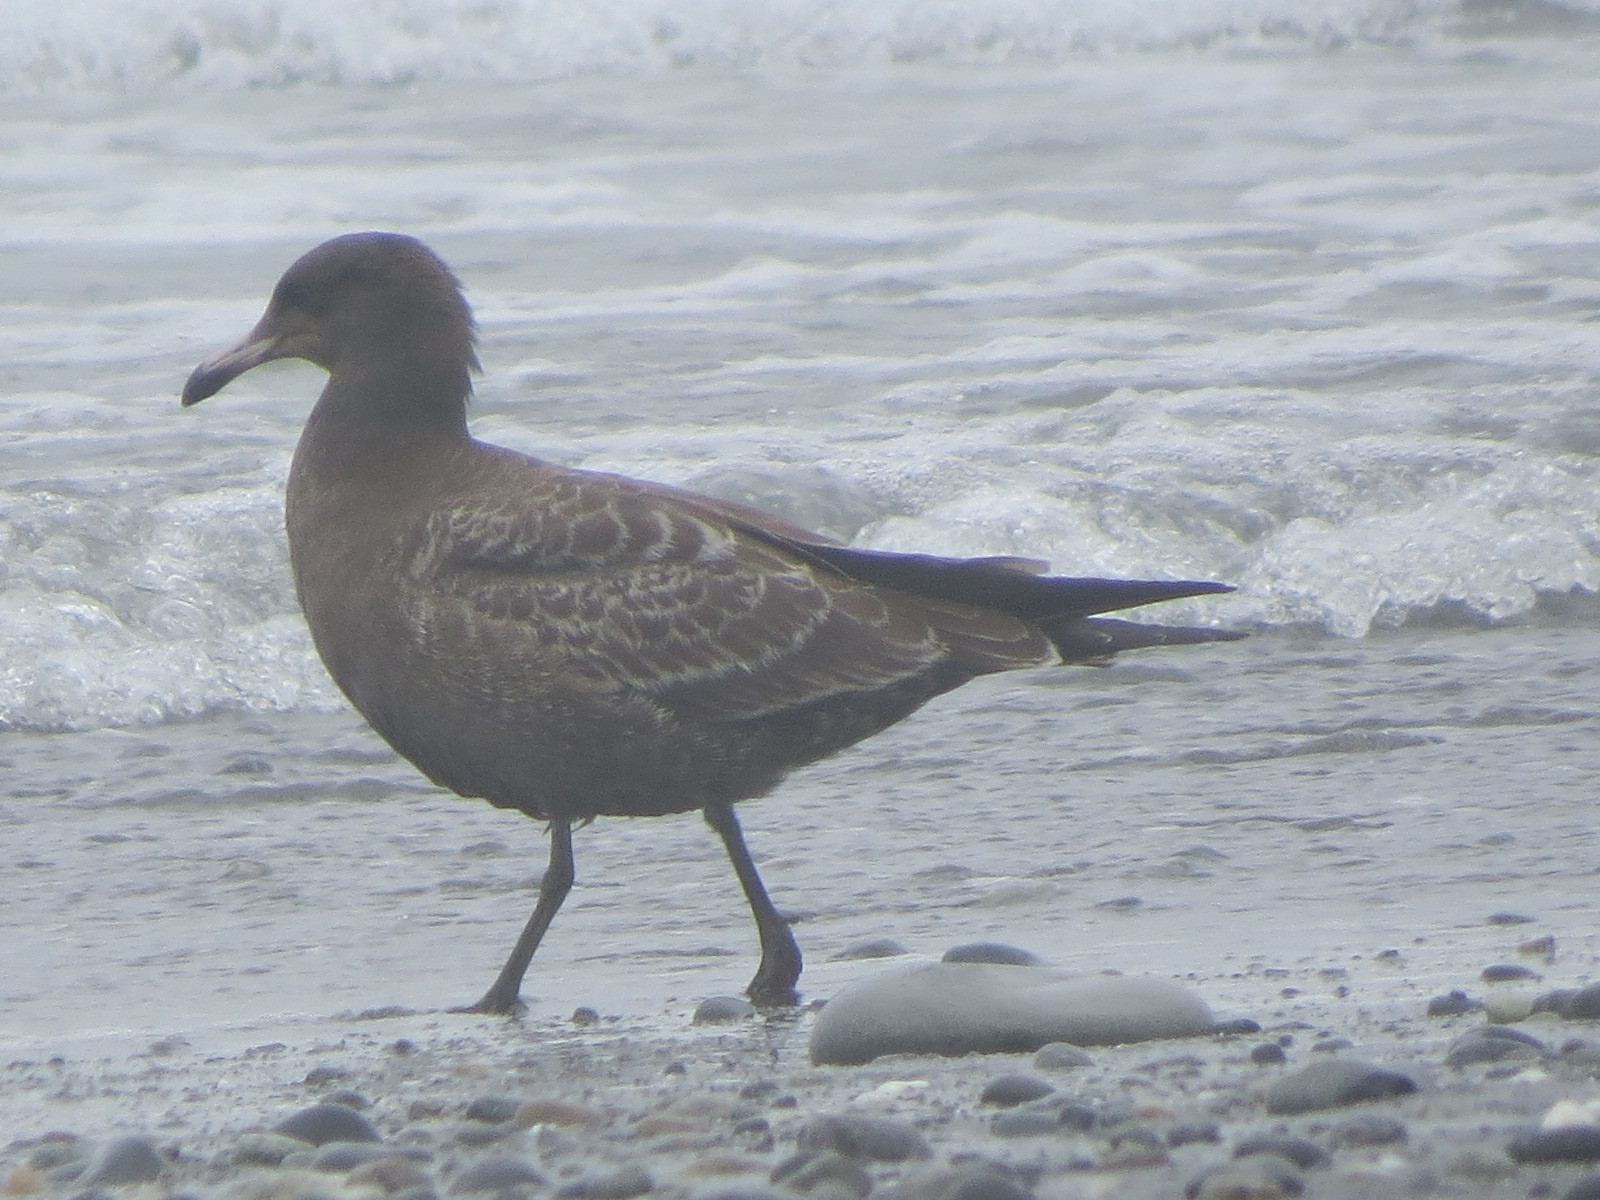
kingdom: Animalia
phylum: Chordata
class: Aves
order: Charadriiformes
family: Laridae
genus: Larus
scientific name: Larus heermanni
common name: Heermann's gull
